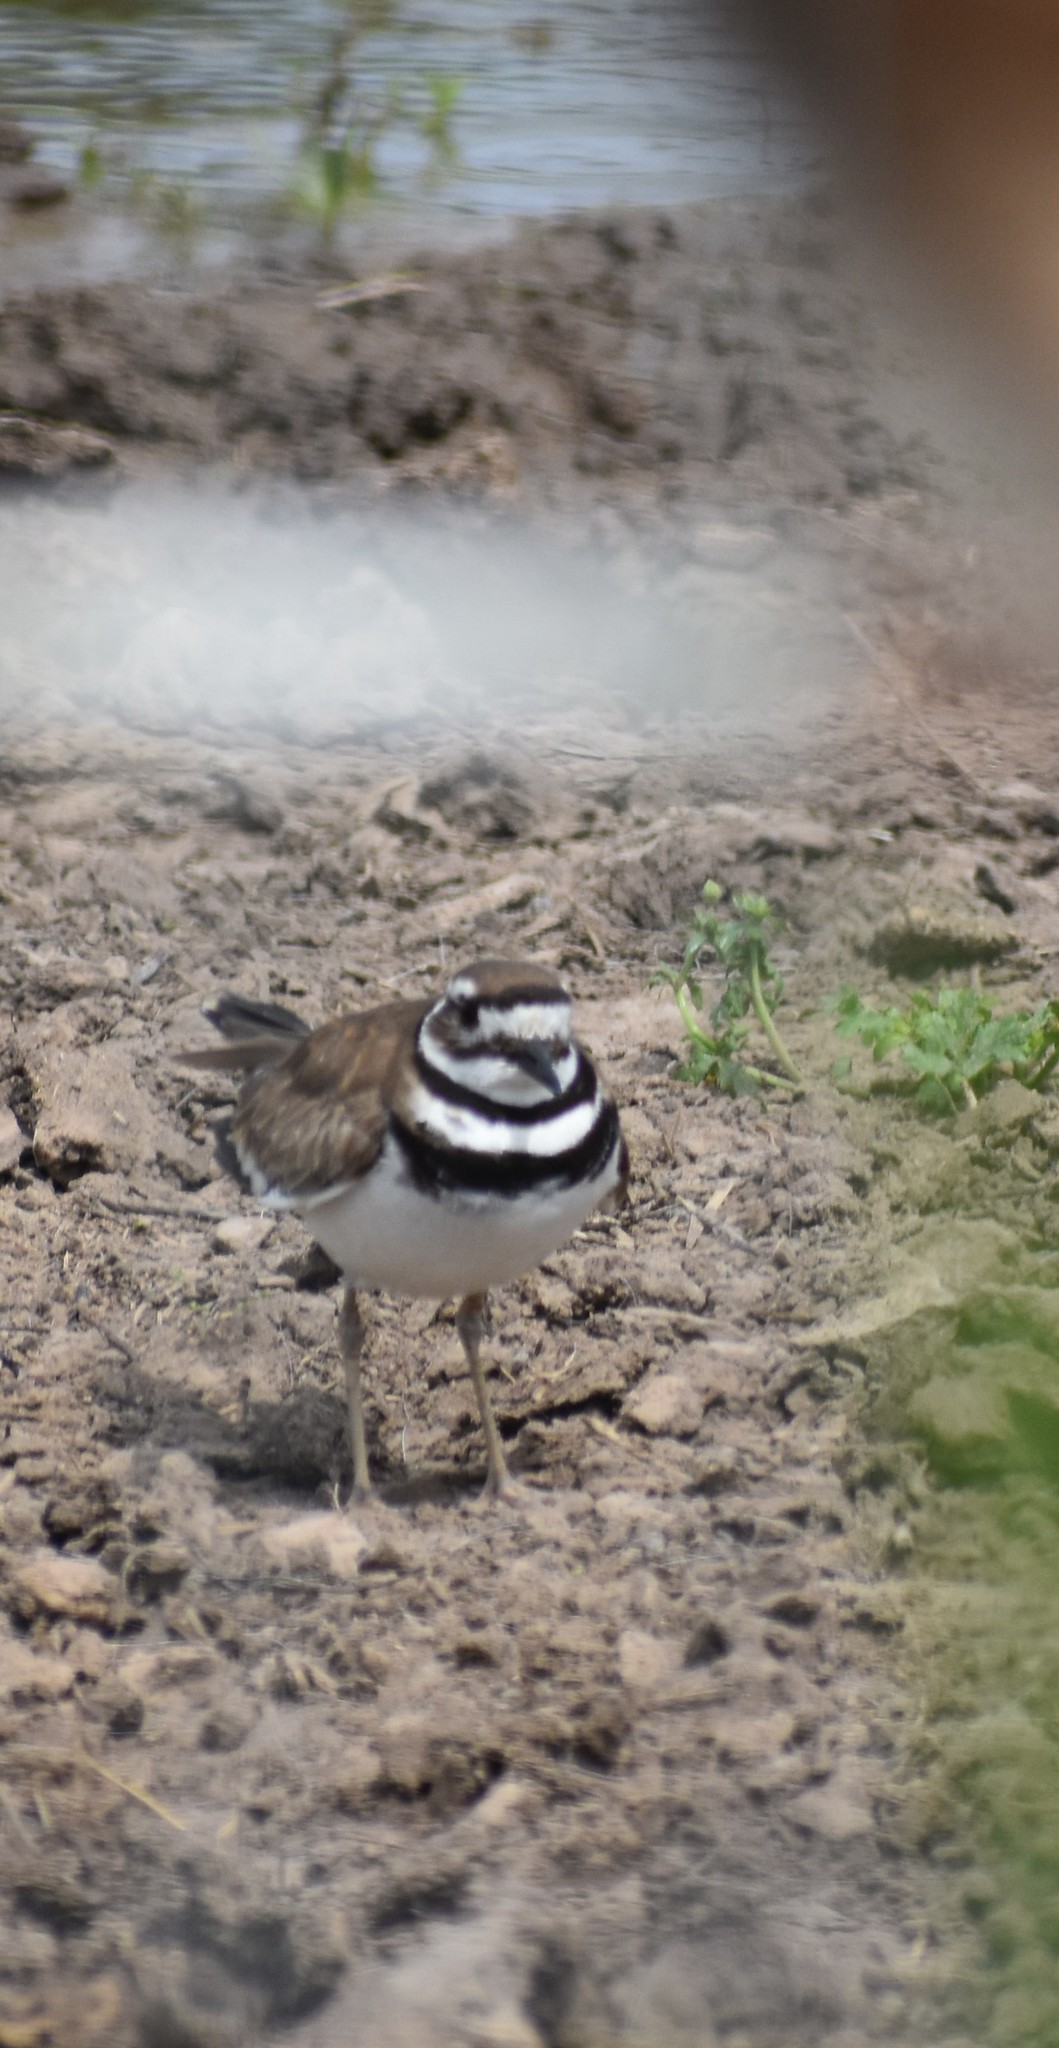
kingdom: Animalia
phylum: Chordata
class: Aves
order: Charadriiformes
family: Charadriidae
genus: Charadrius
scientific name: Charadrius vociferus
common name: Killdeer
